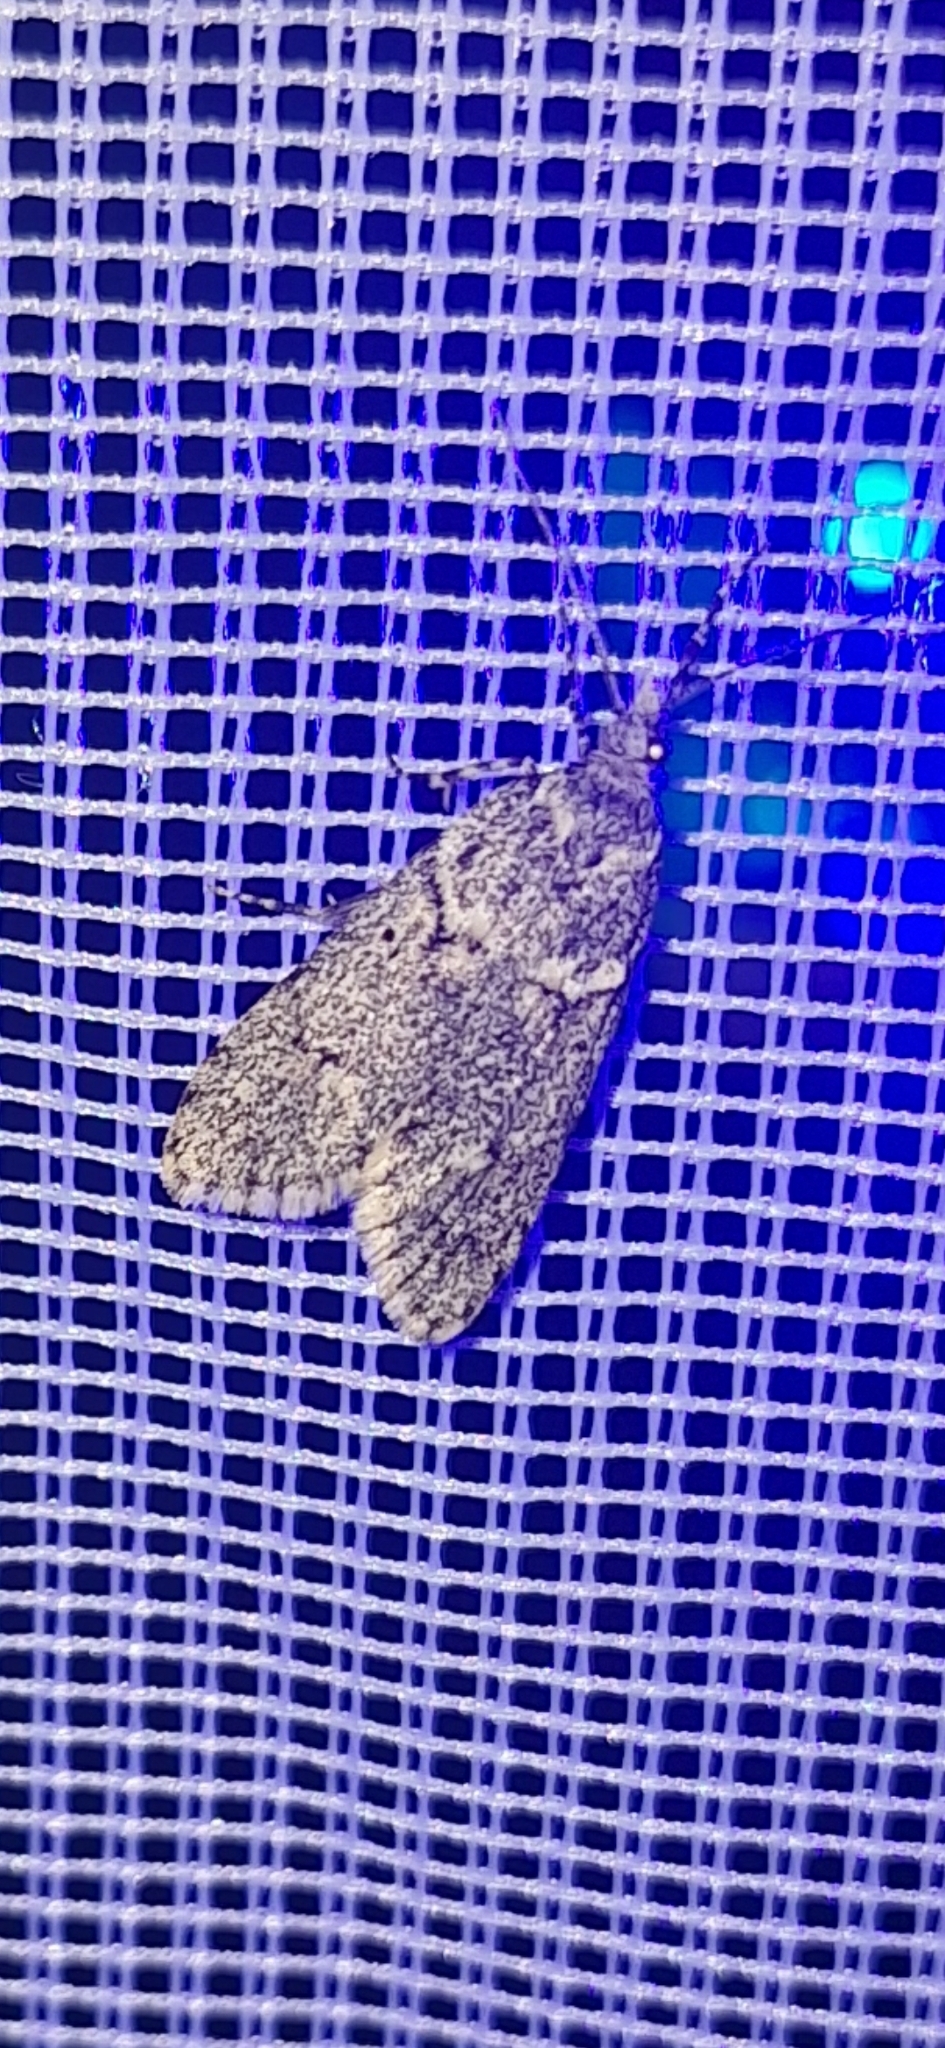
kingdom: Animalia
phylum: Arthropoda
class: Insecta
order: Lepidoptera
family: Lypusidae
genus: Diurnea
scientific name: Diurnea fagella
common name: March tubic
